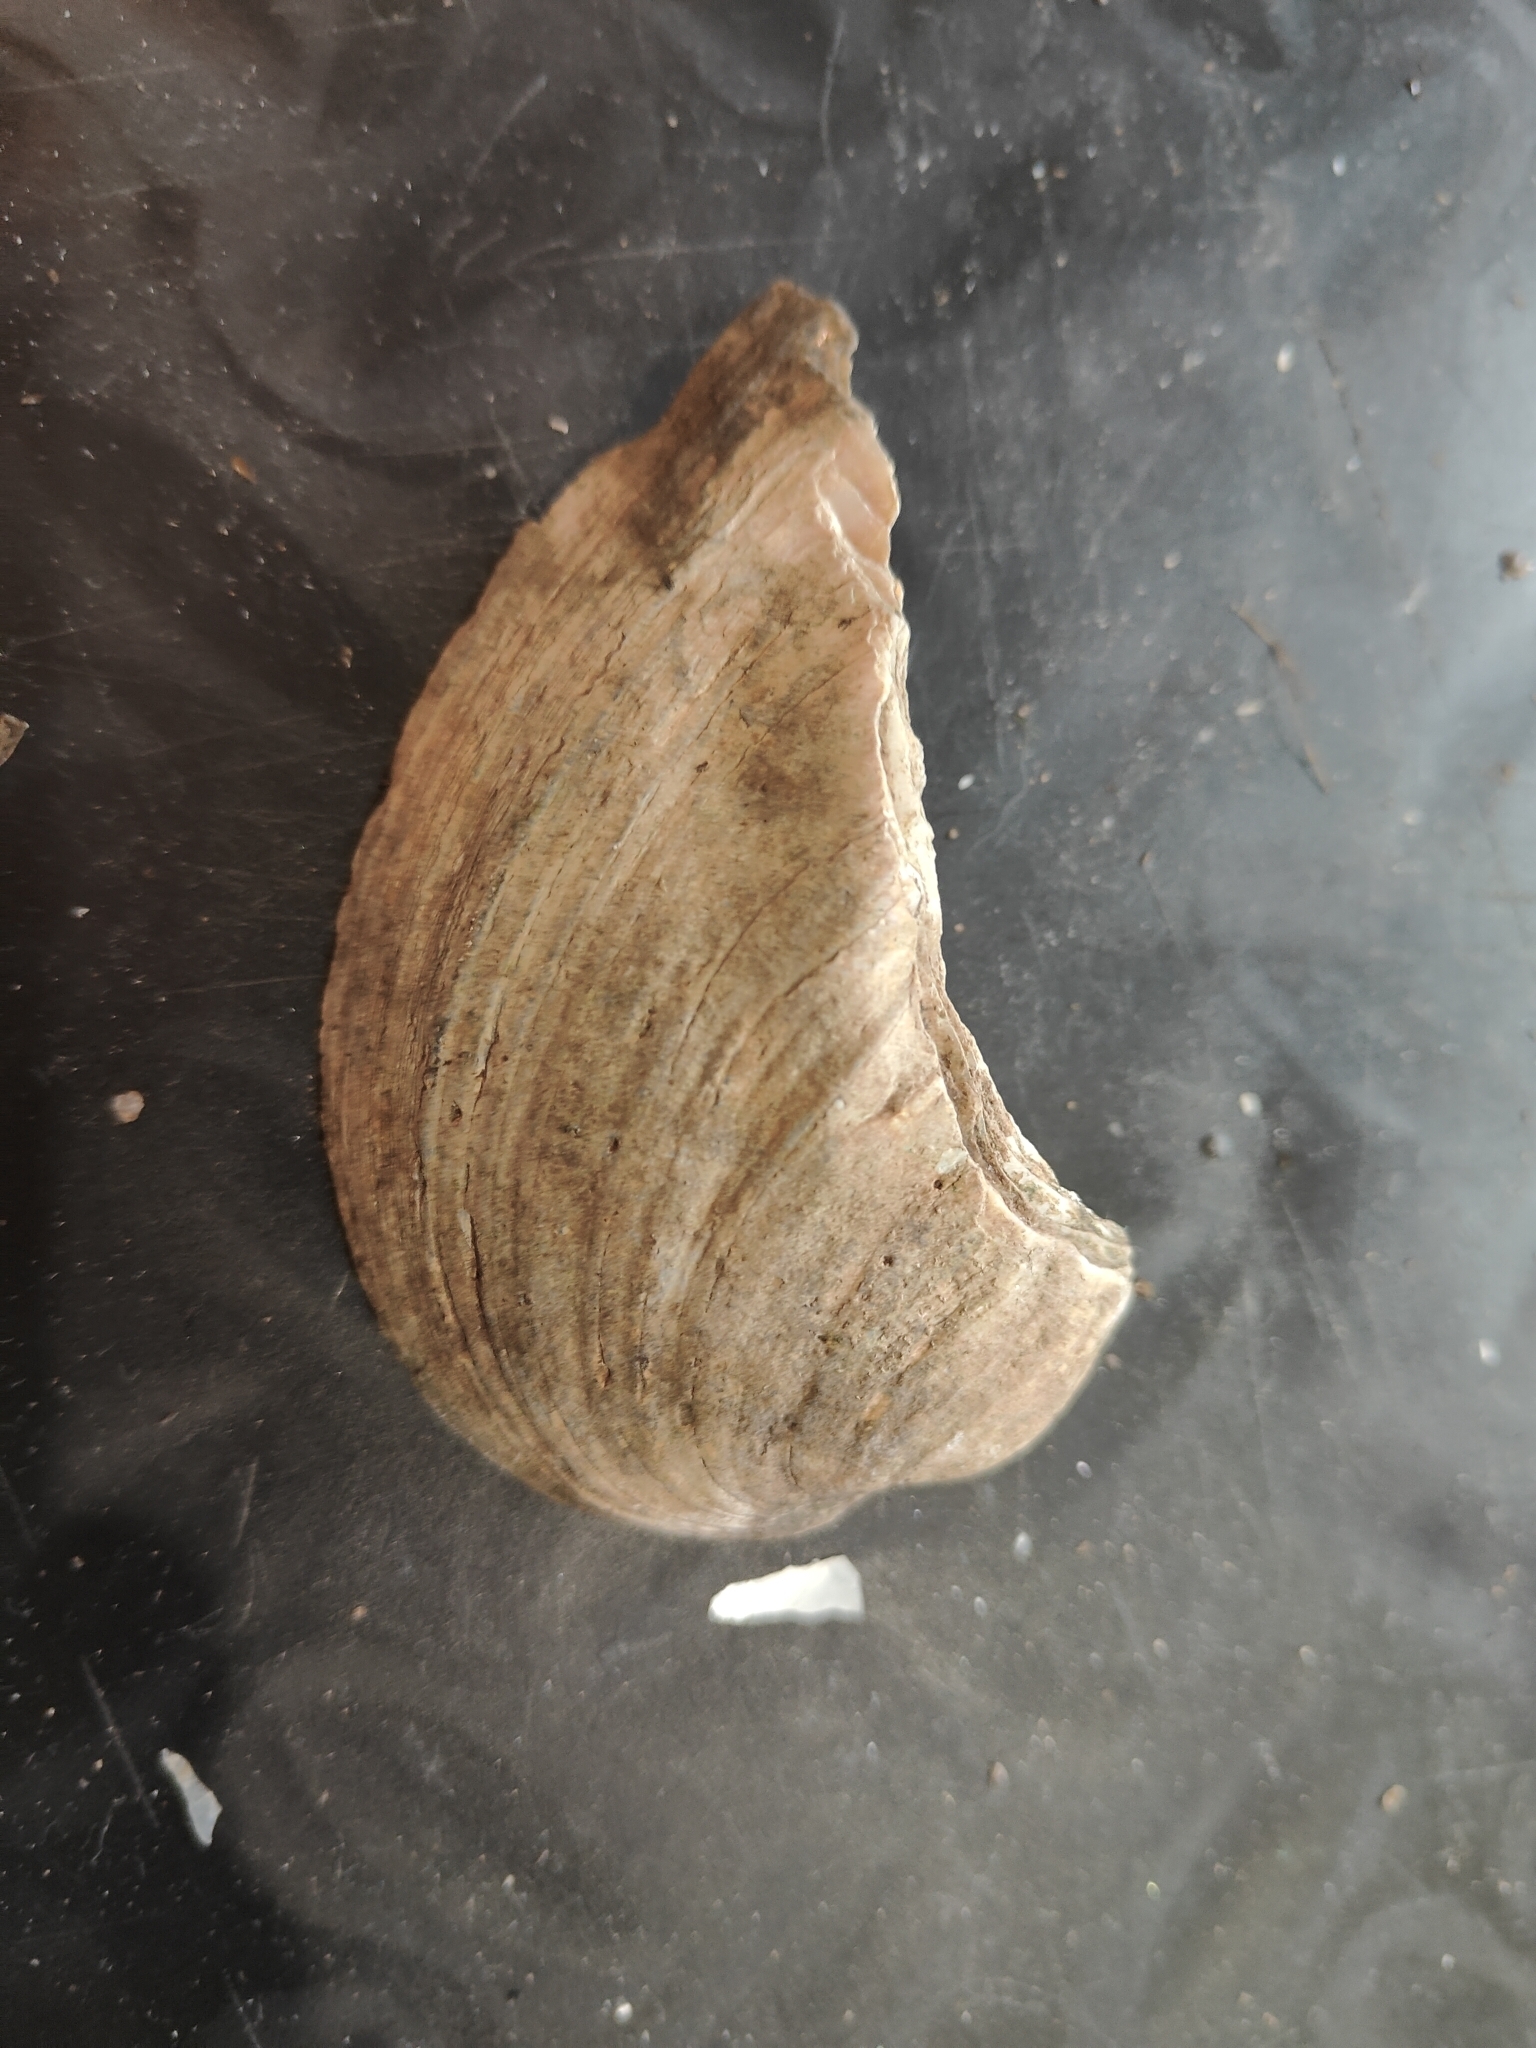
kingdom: Animalia
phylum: Mollusca
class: Bivalvia
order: Unionida
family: Unionidae
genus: Amblema
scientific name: Amblema plicata
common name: Threeridge
